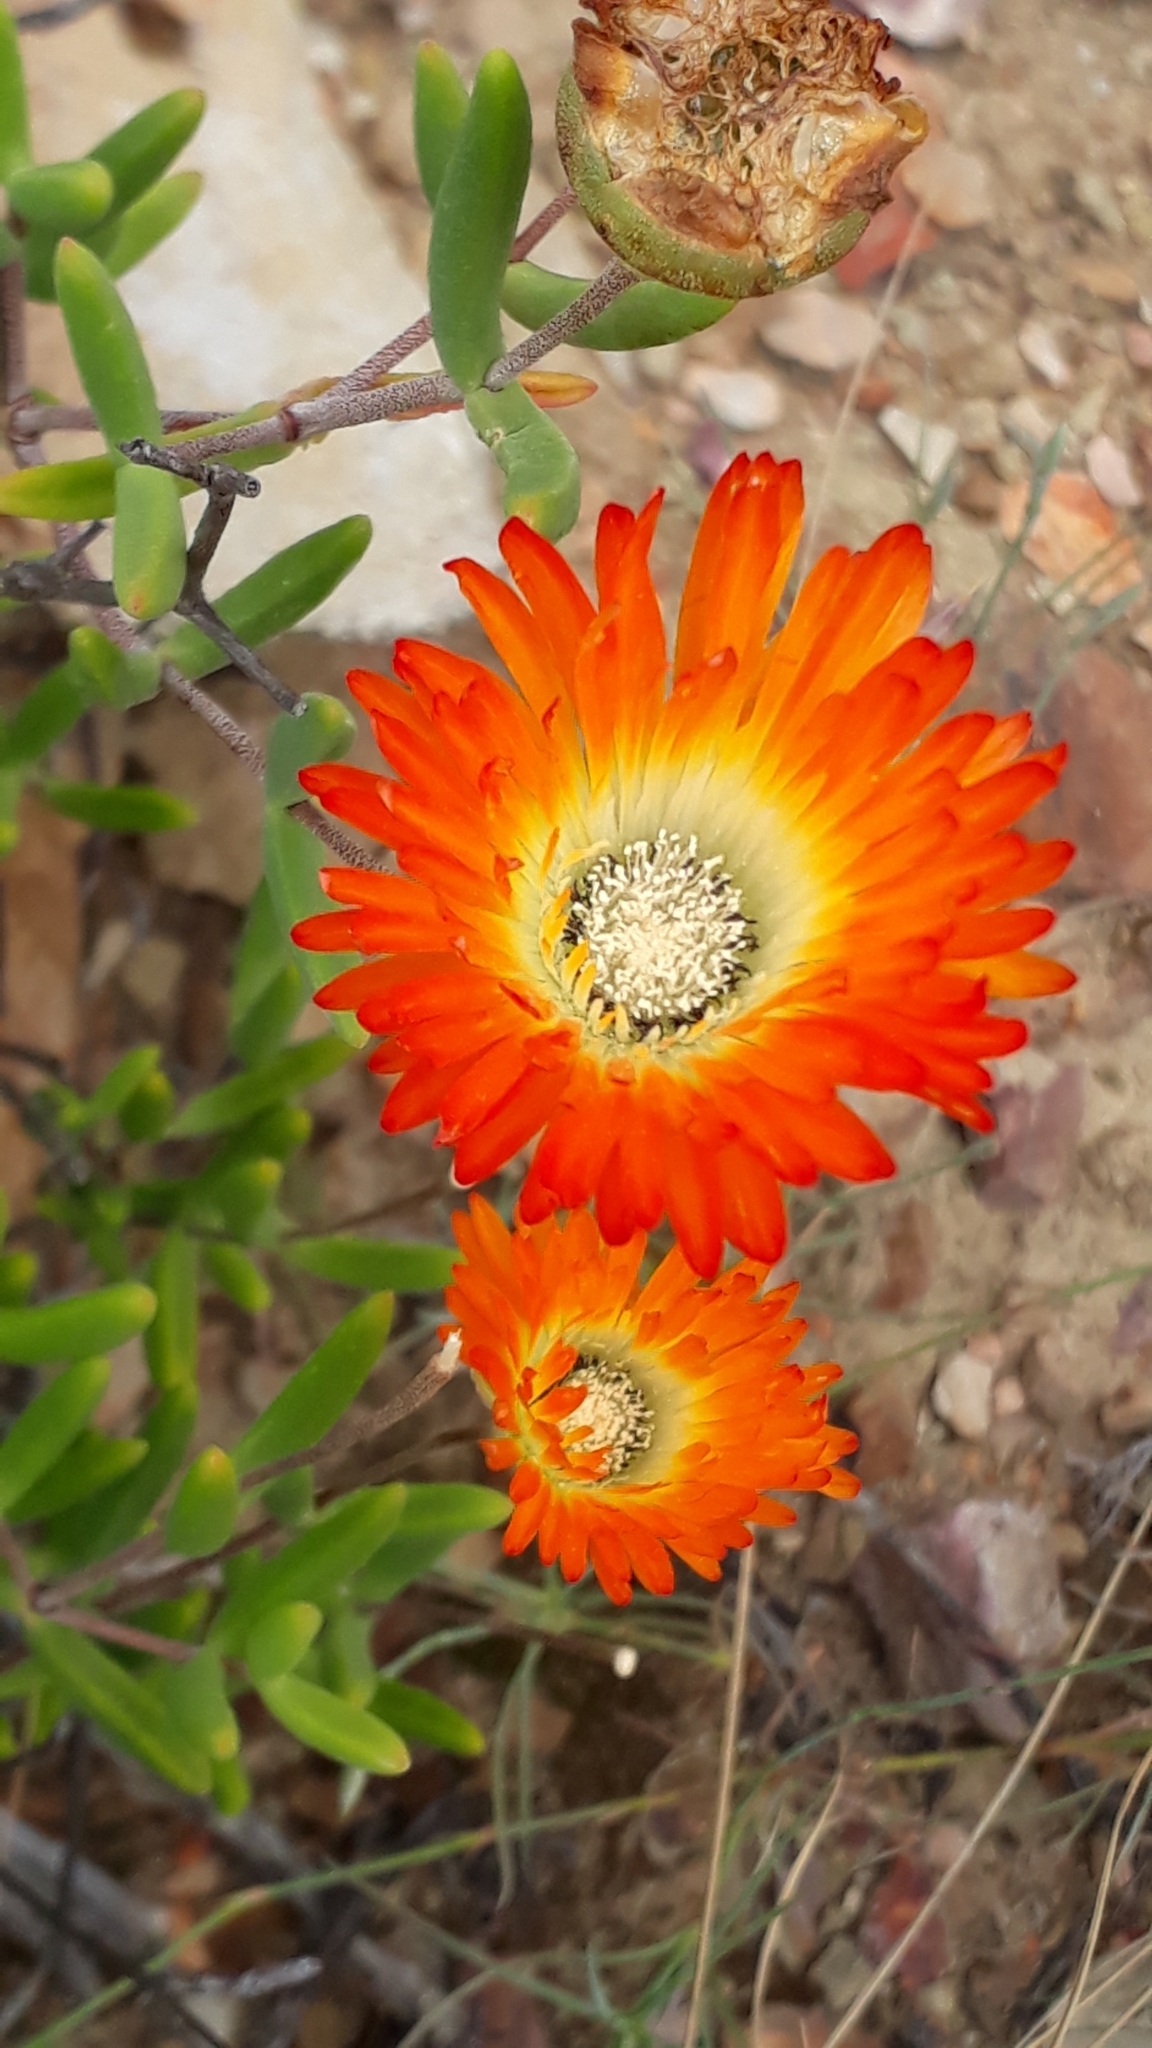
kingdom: Plantae
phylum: Tracheophyta
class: Magnoliopsida
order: Caryophyllales
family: Aizoaceae
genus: Drosanthemum
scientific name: Drosanthemum speciosum
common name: Royal dewflower
